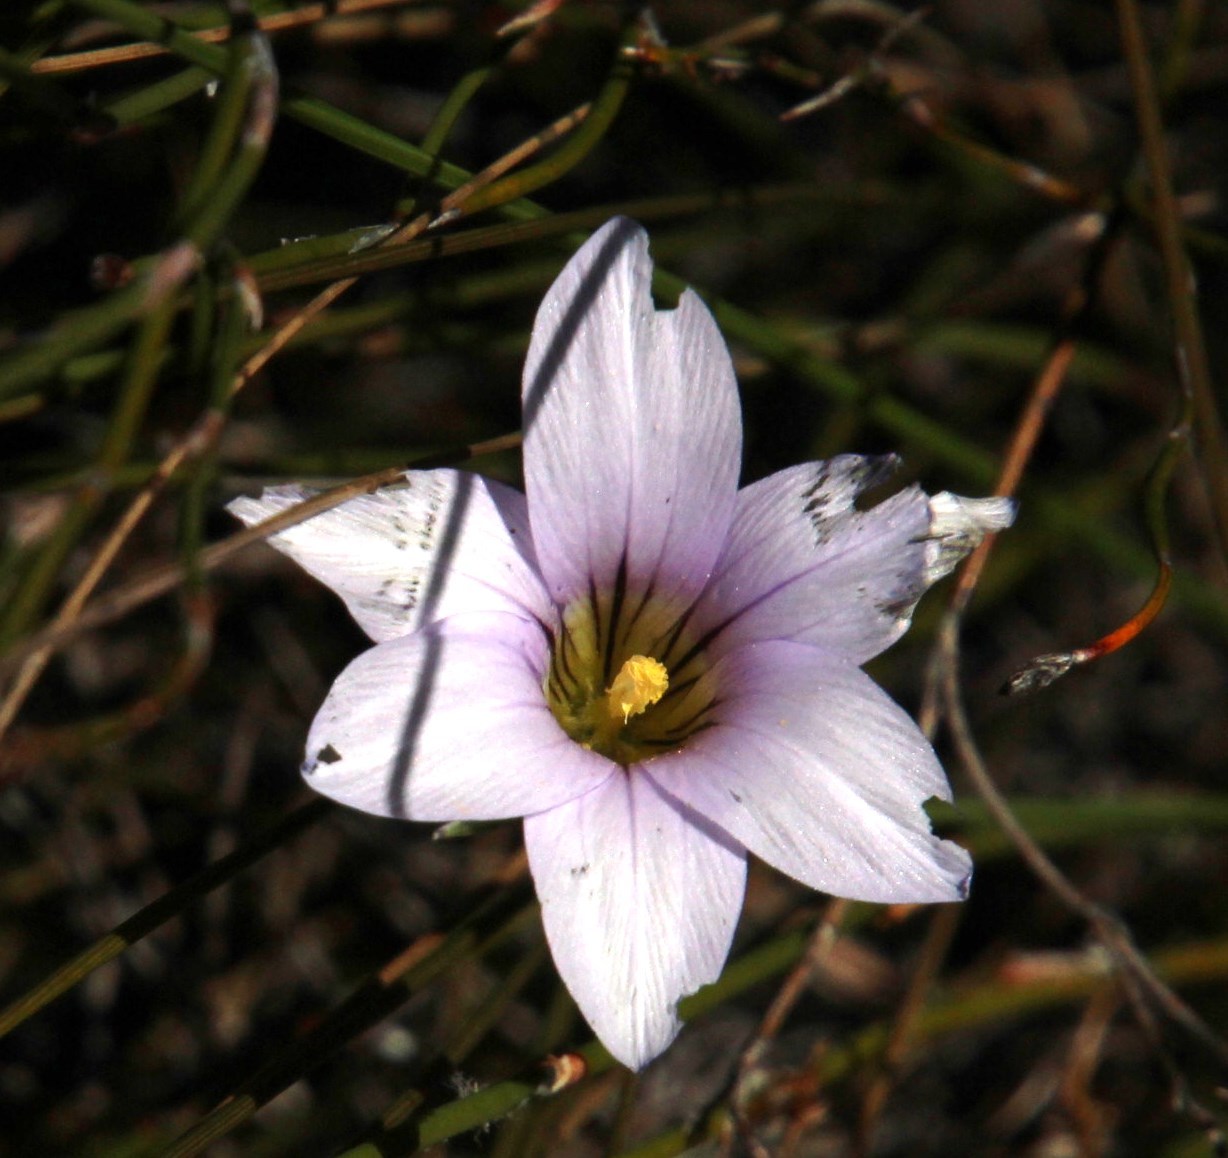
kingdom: Plantae
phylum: Tracheophyta
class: Liliopsida
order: Asparagales
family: Iridaceae
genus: Romulea
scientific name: Romulea rupestris
